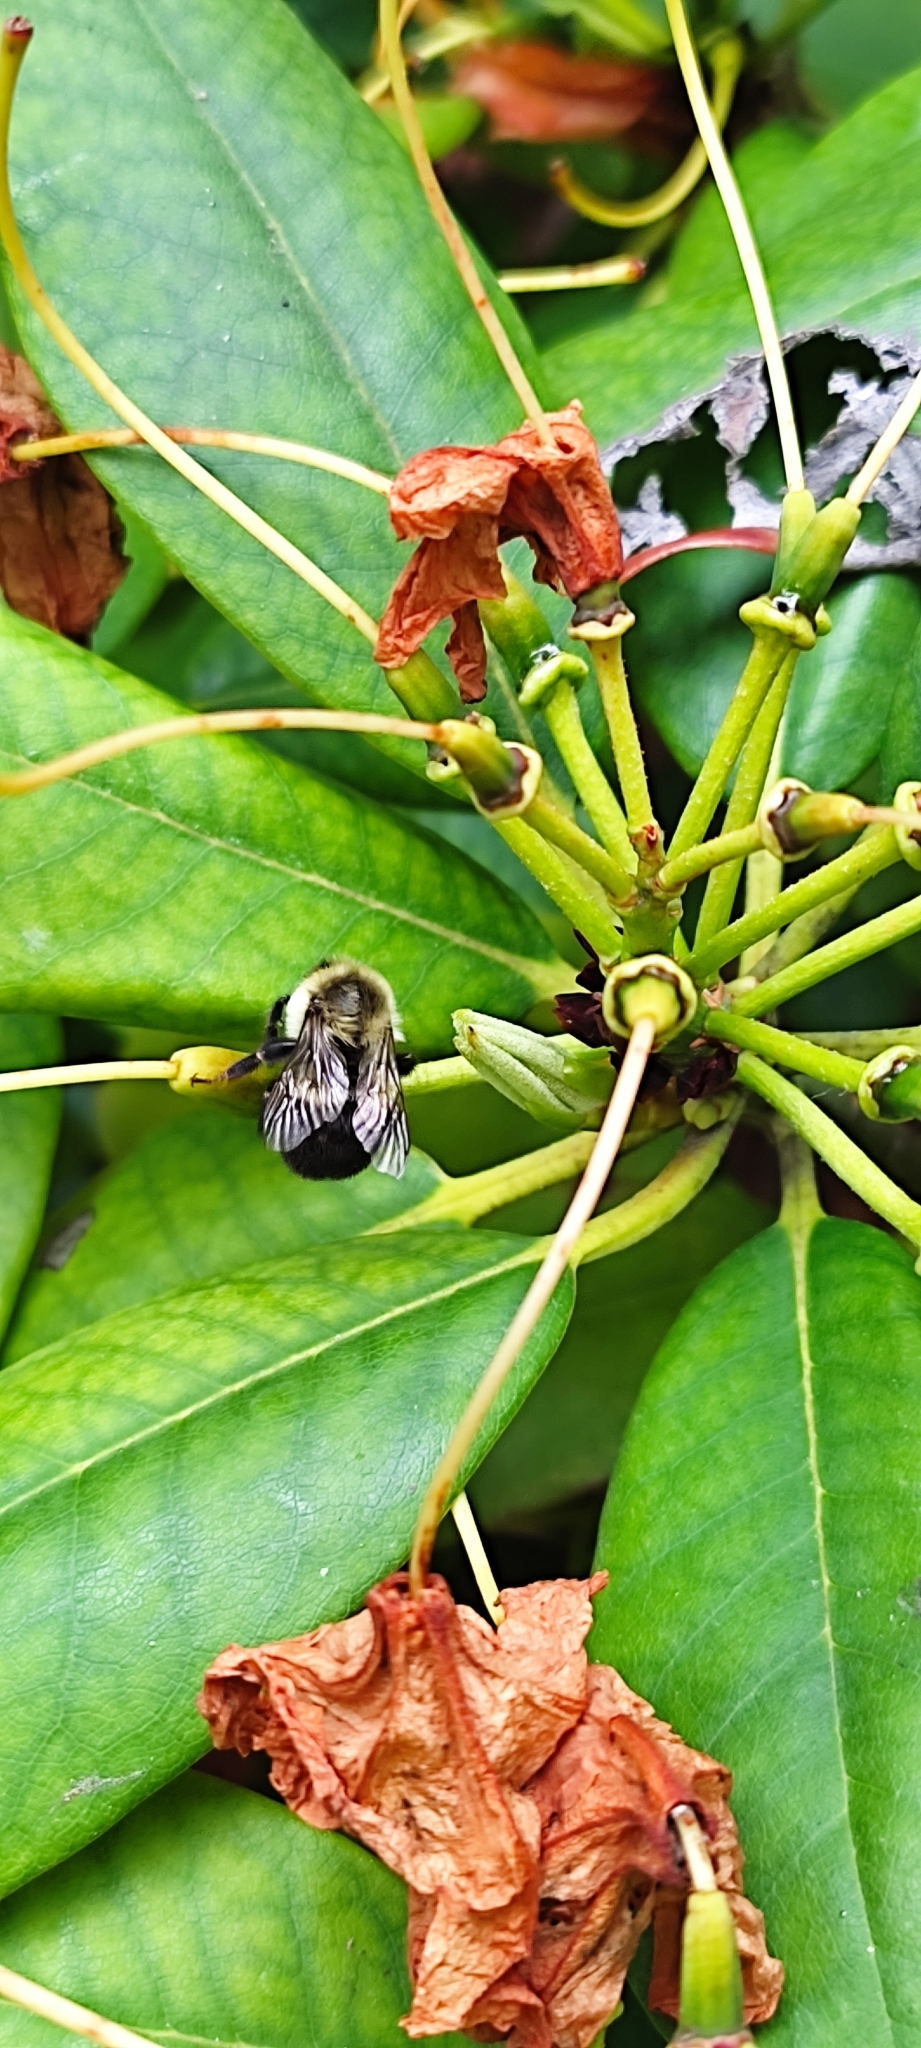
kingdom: Animalia
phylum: Arthropoda
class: Insecta
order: Hymenoptera
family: Apidae
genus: Bombus
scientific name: Bombus impatiens
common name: Common eastern bumble bee
